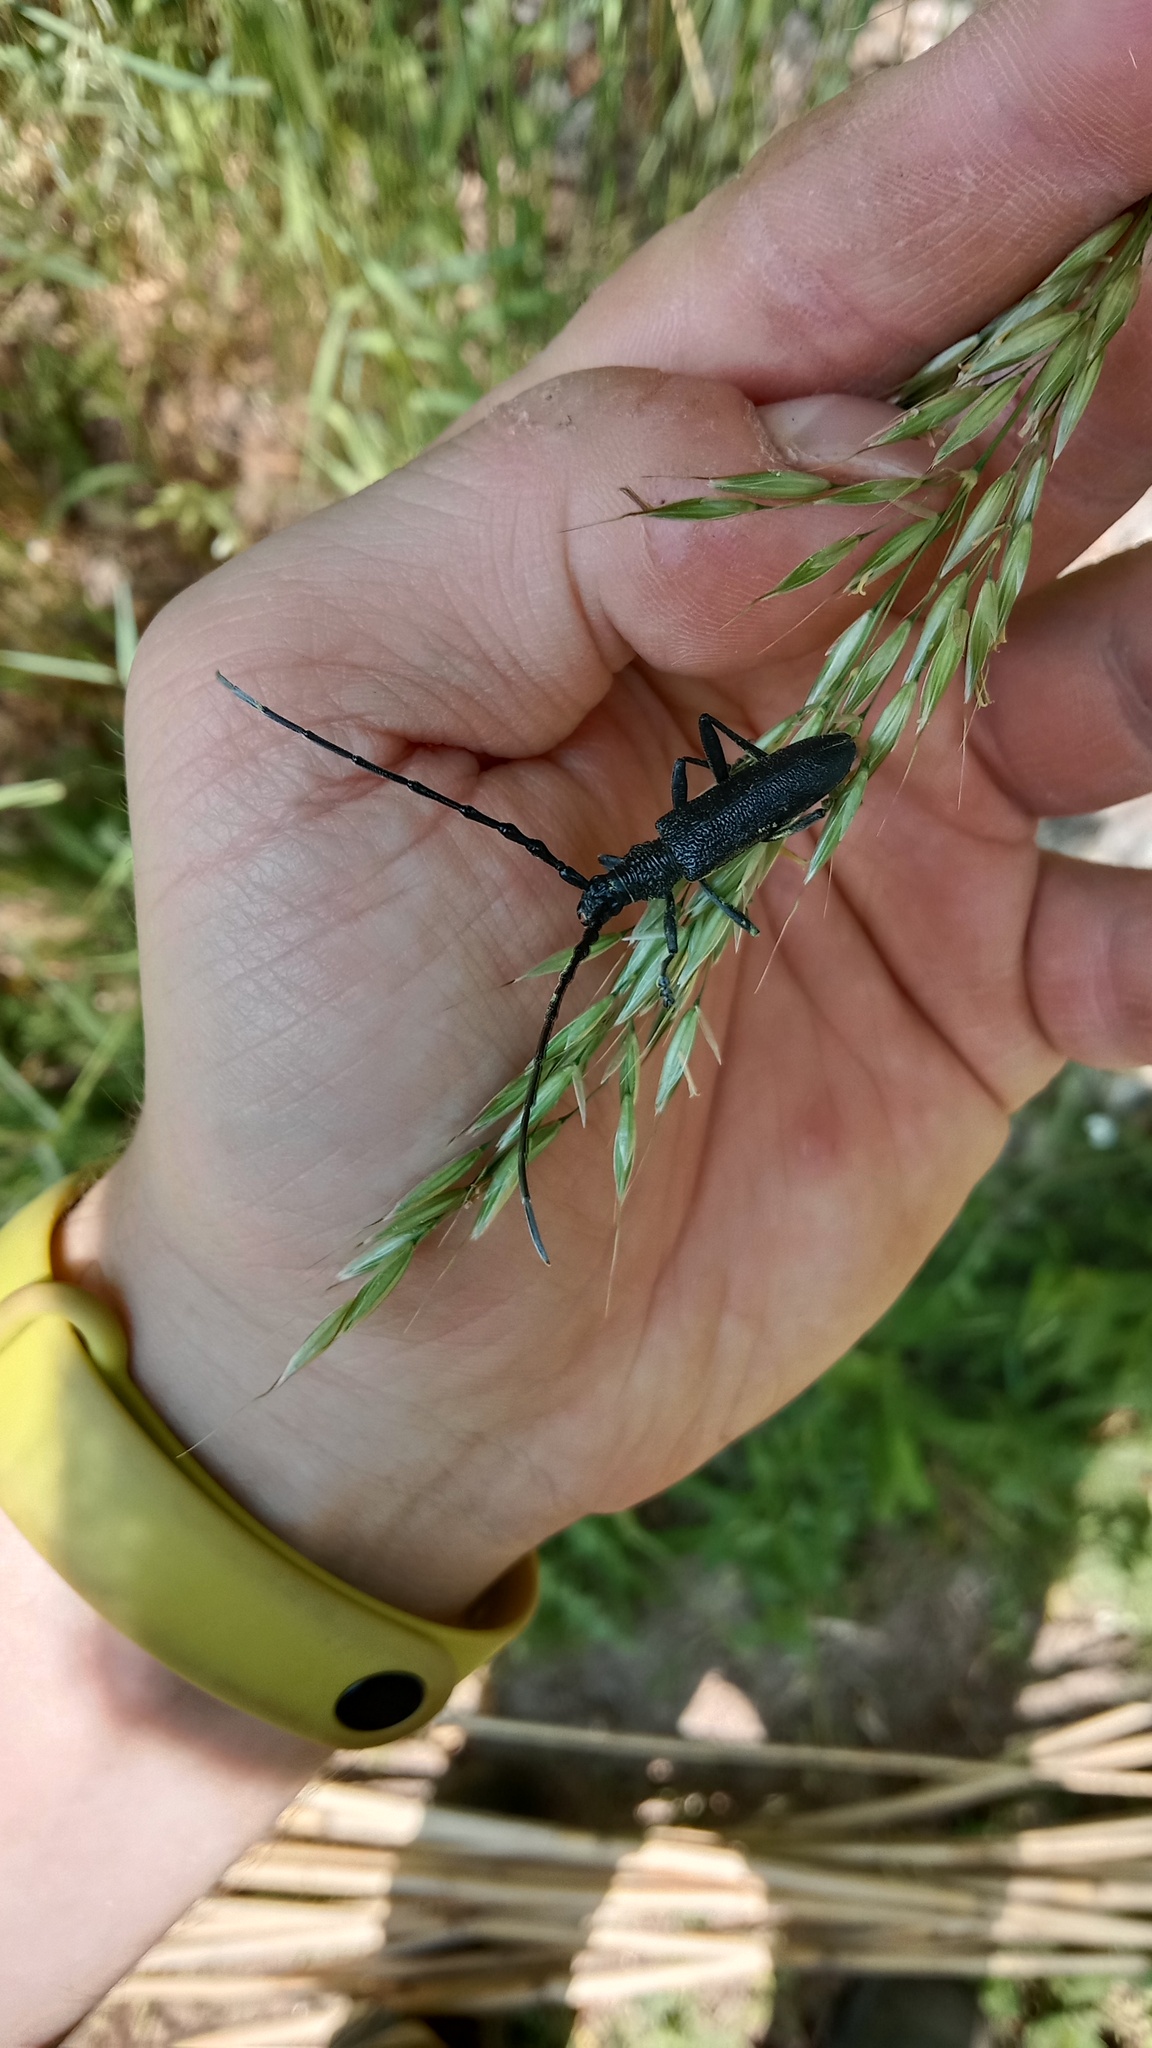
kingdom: Animalia
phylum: Arthropoda
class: Insecta
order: Coleoptera
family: Cerambycidae
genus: Cerambyx
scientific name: Cerambyx scopolii
